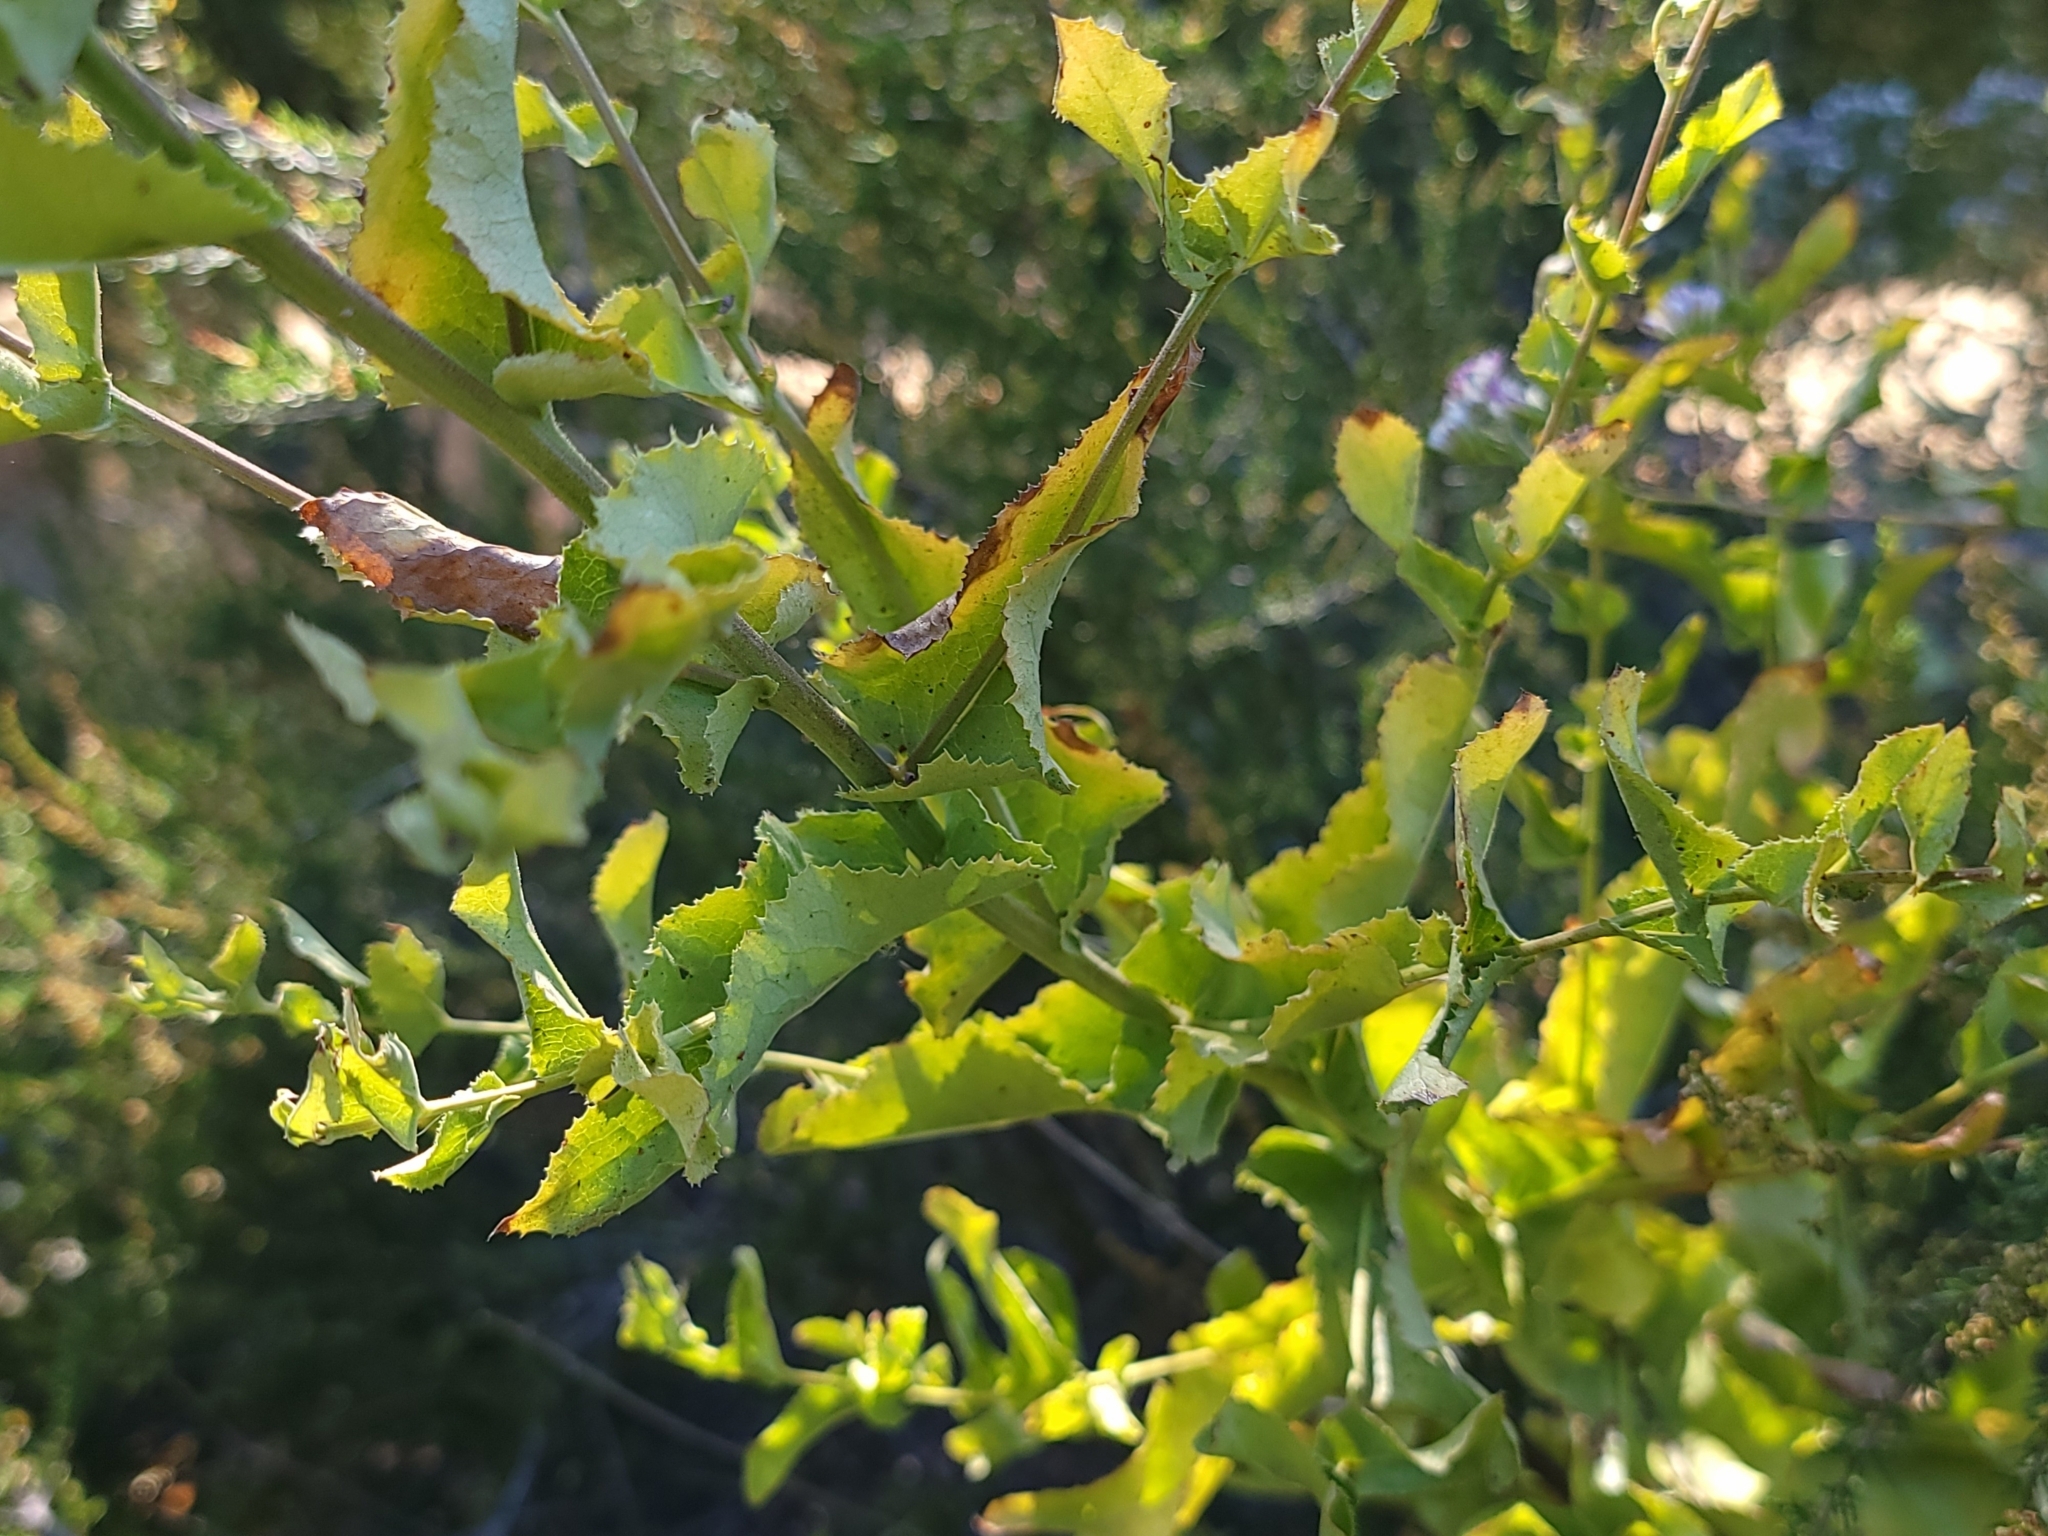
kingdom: Plantae
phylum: Tracheophyta
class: Magnoliopsida
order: Asterales
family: Asteraceae
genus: Acourtia
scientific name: Acourtia microcephala
